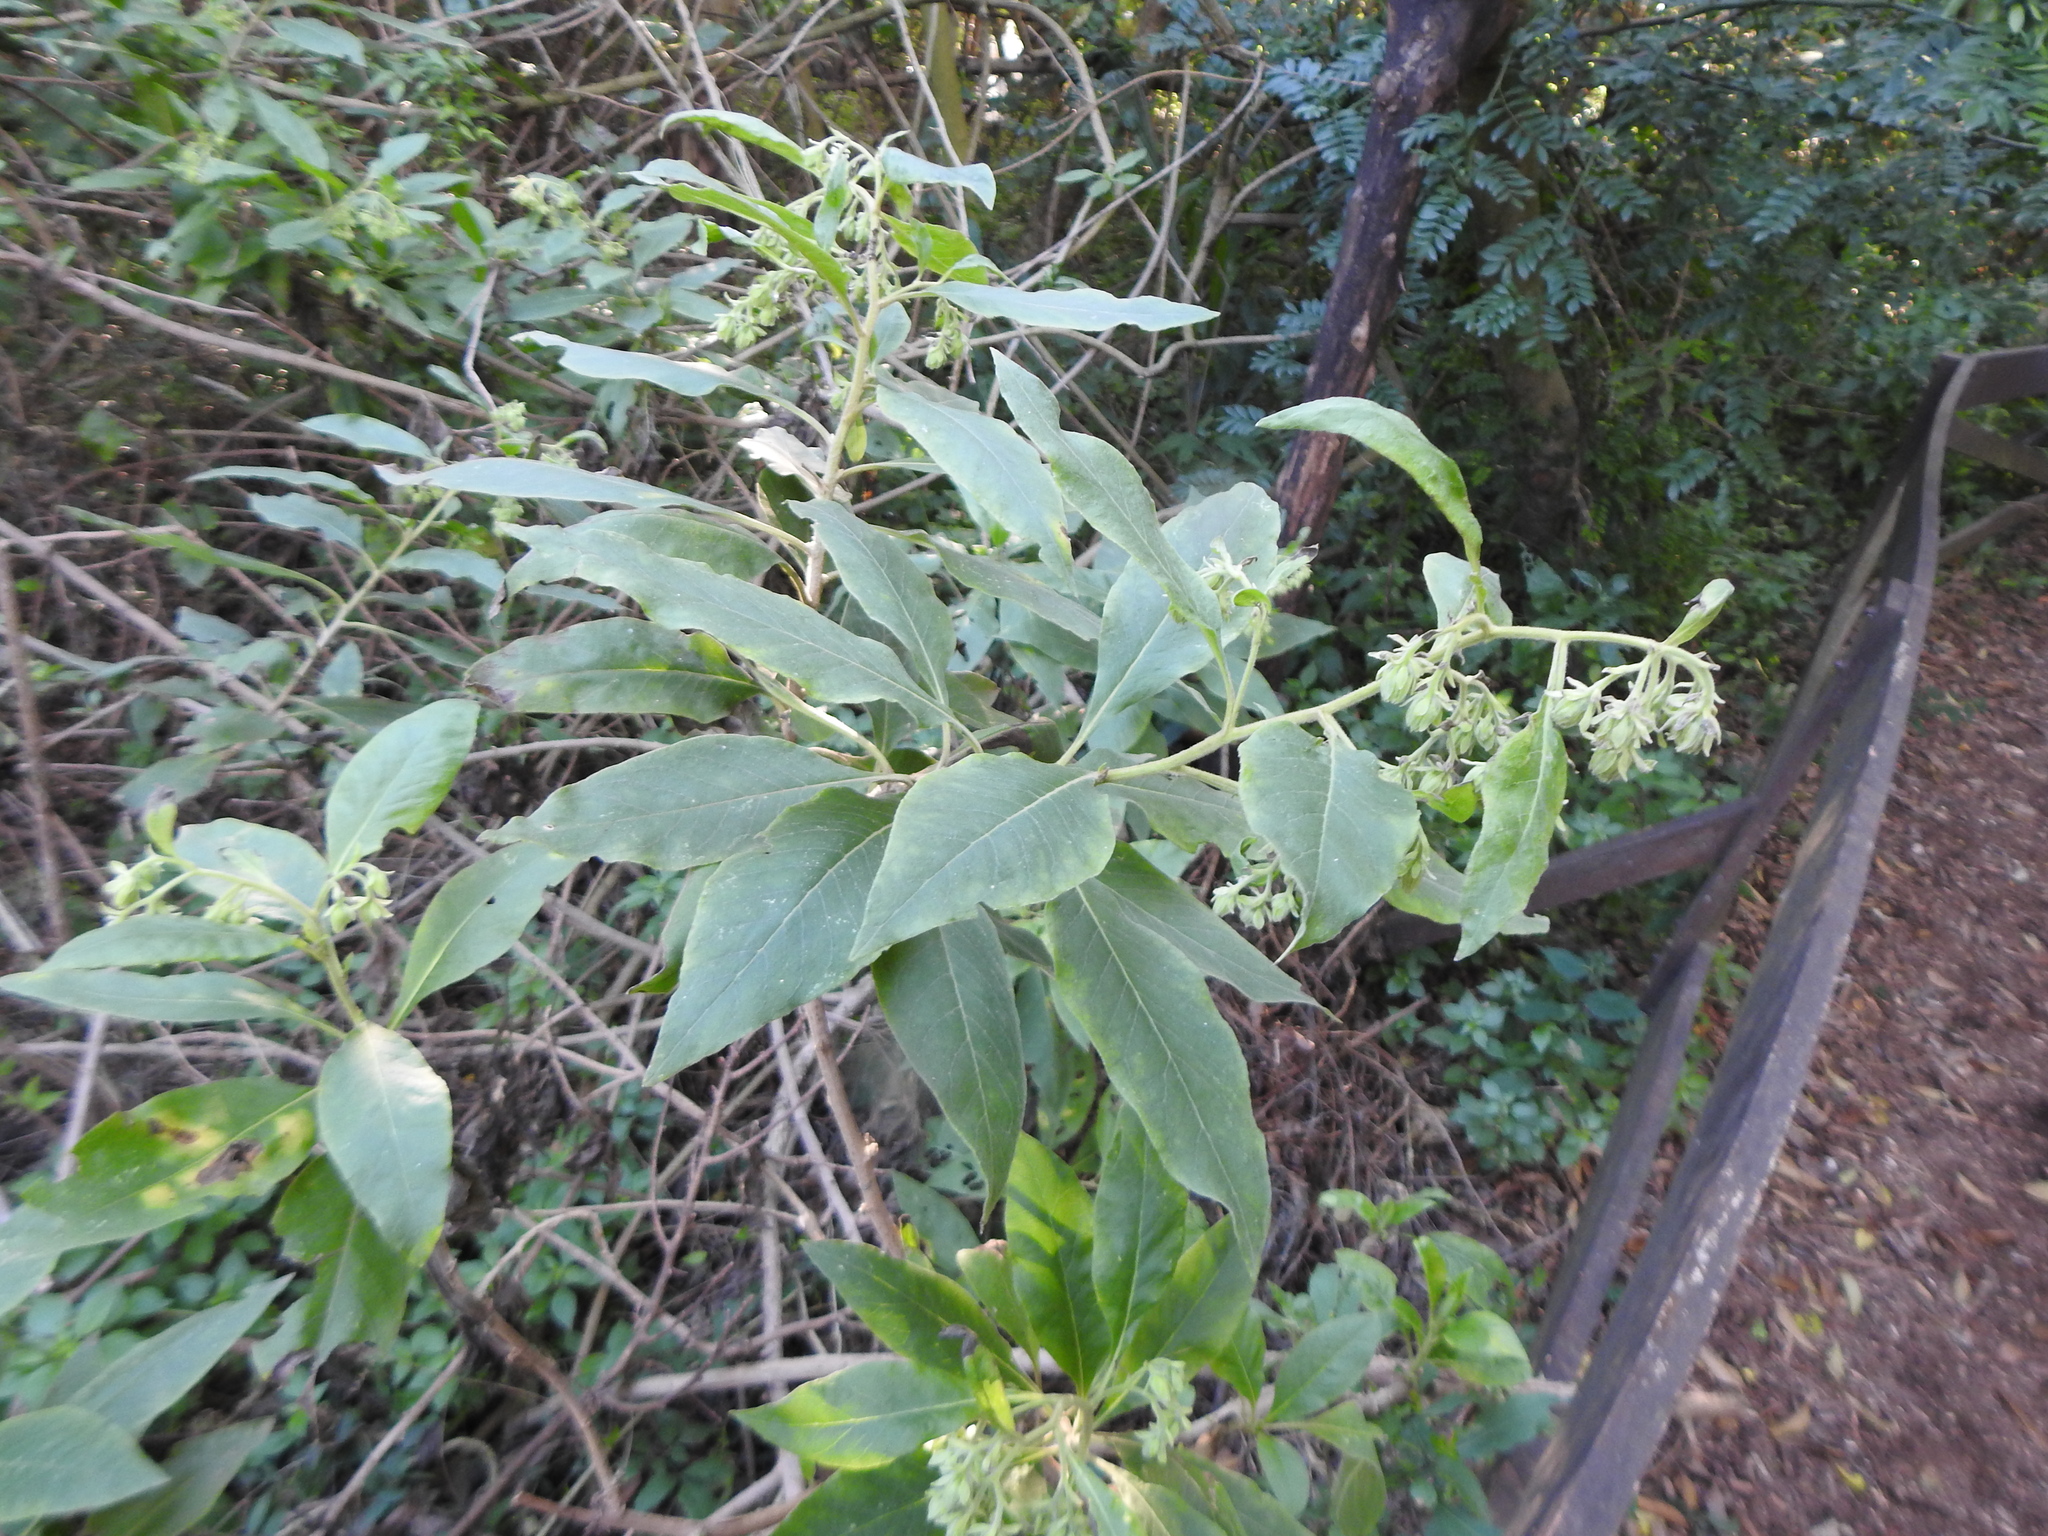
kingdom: Plantae
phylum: Tracheophyta
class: Magnoliopsida
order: Asterales
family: Asteraceae
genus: Trixis
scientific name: Trixis praestans
